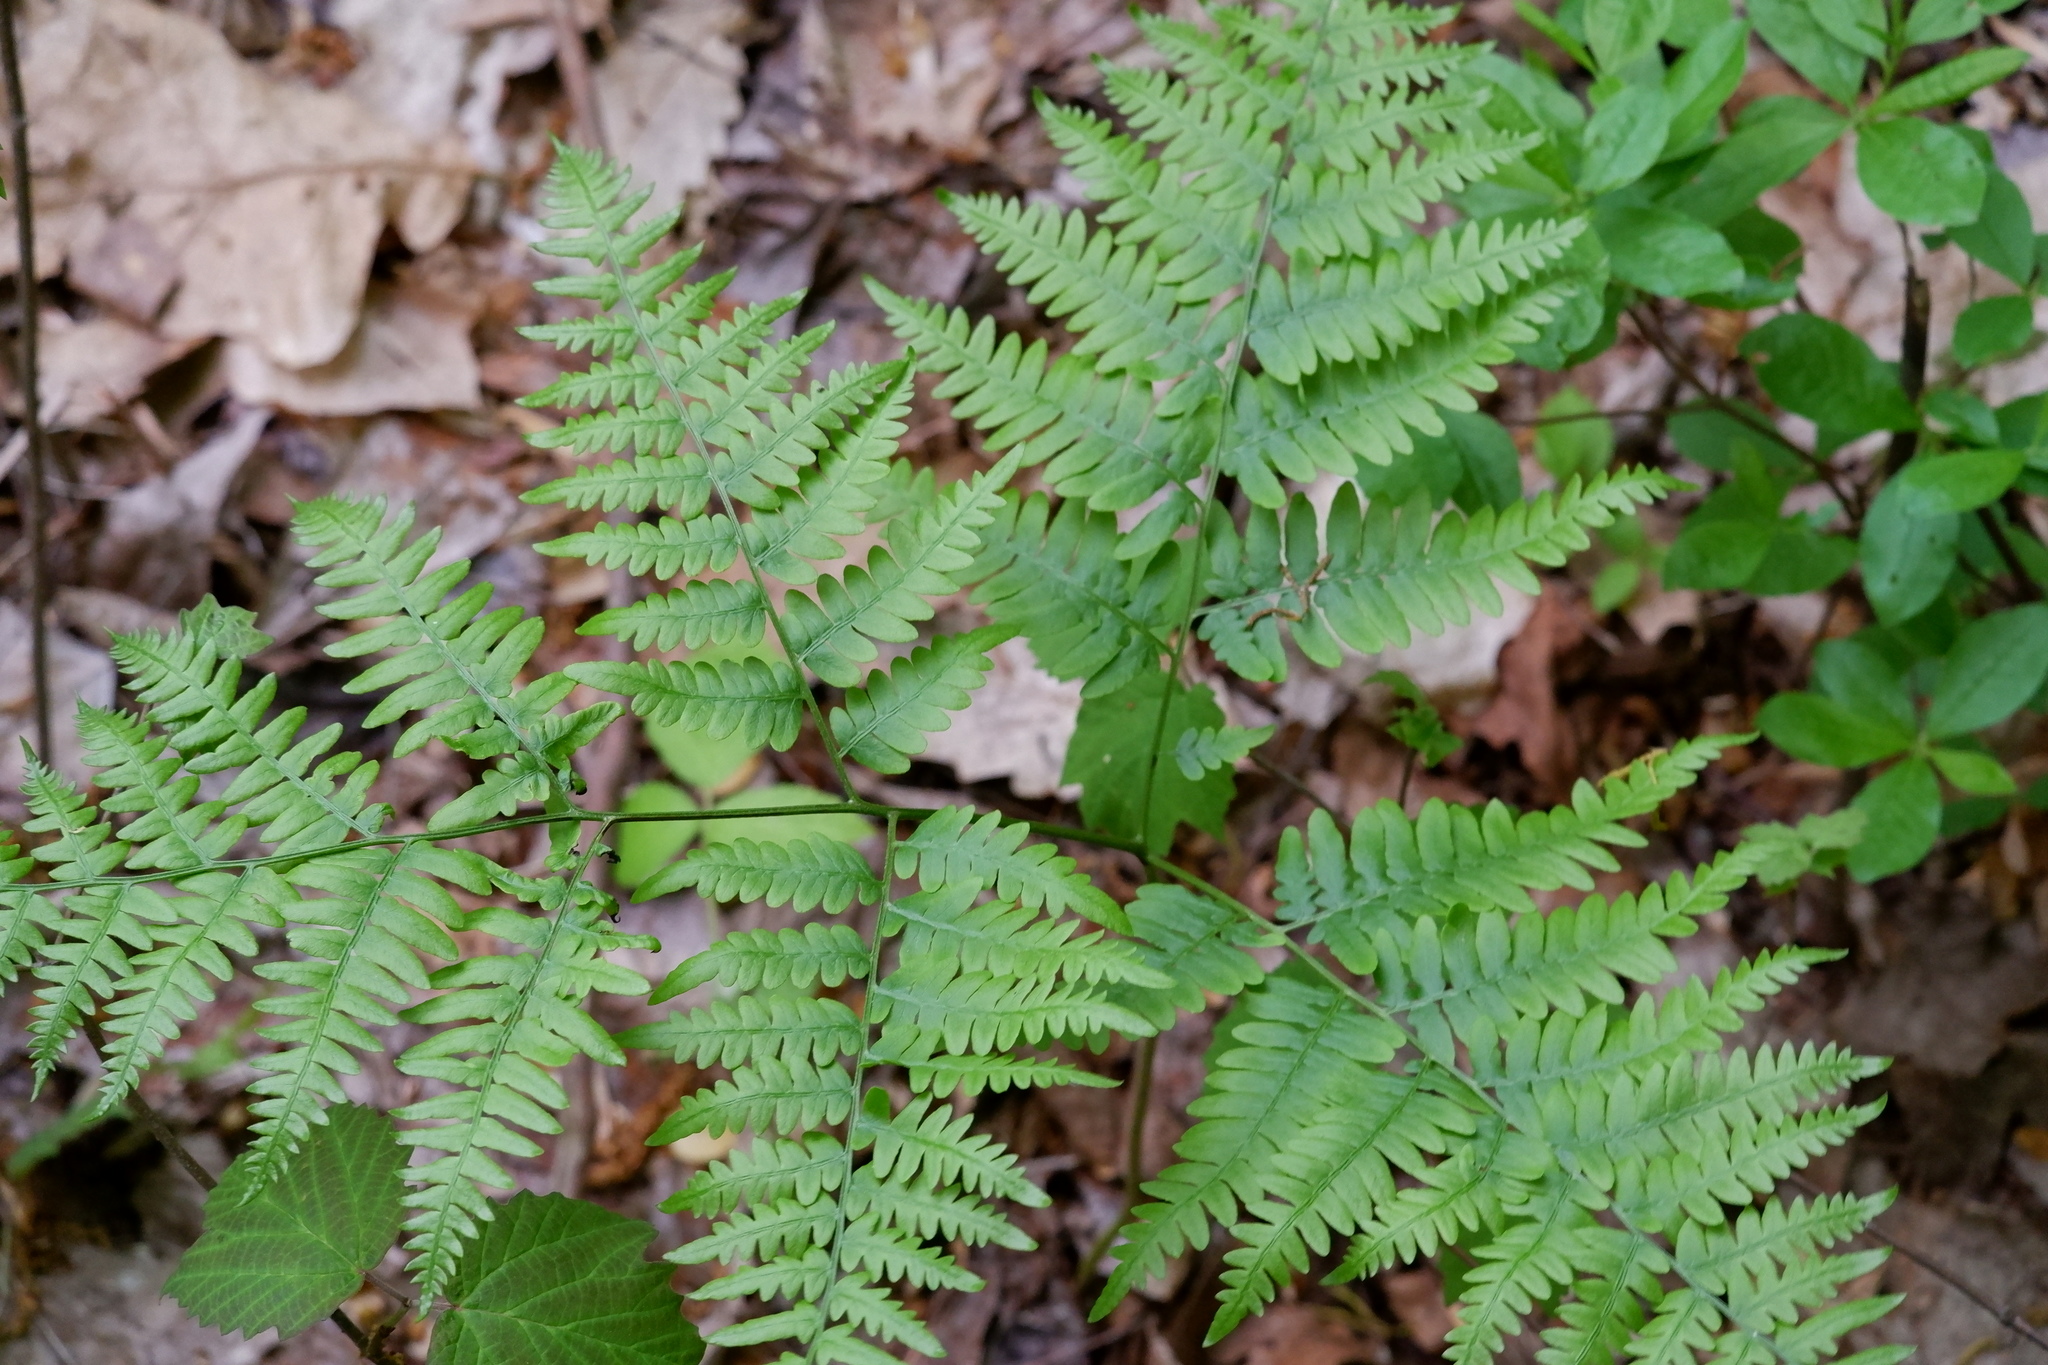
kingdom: Plantae
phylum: Tracheophyta
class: Polypodiopsida
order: Polypodiales
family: Dennstaedtiaceae
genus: Pteridium
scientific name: Pteridium aquilinum
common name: Bracken
